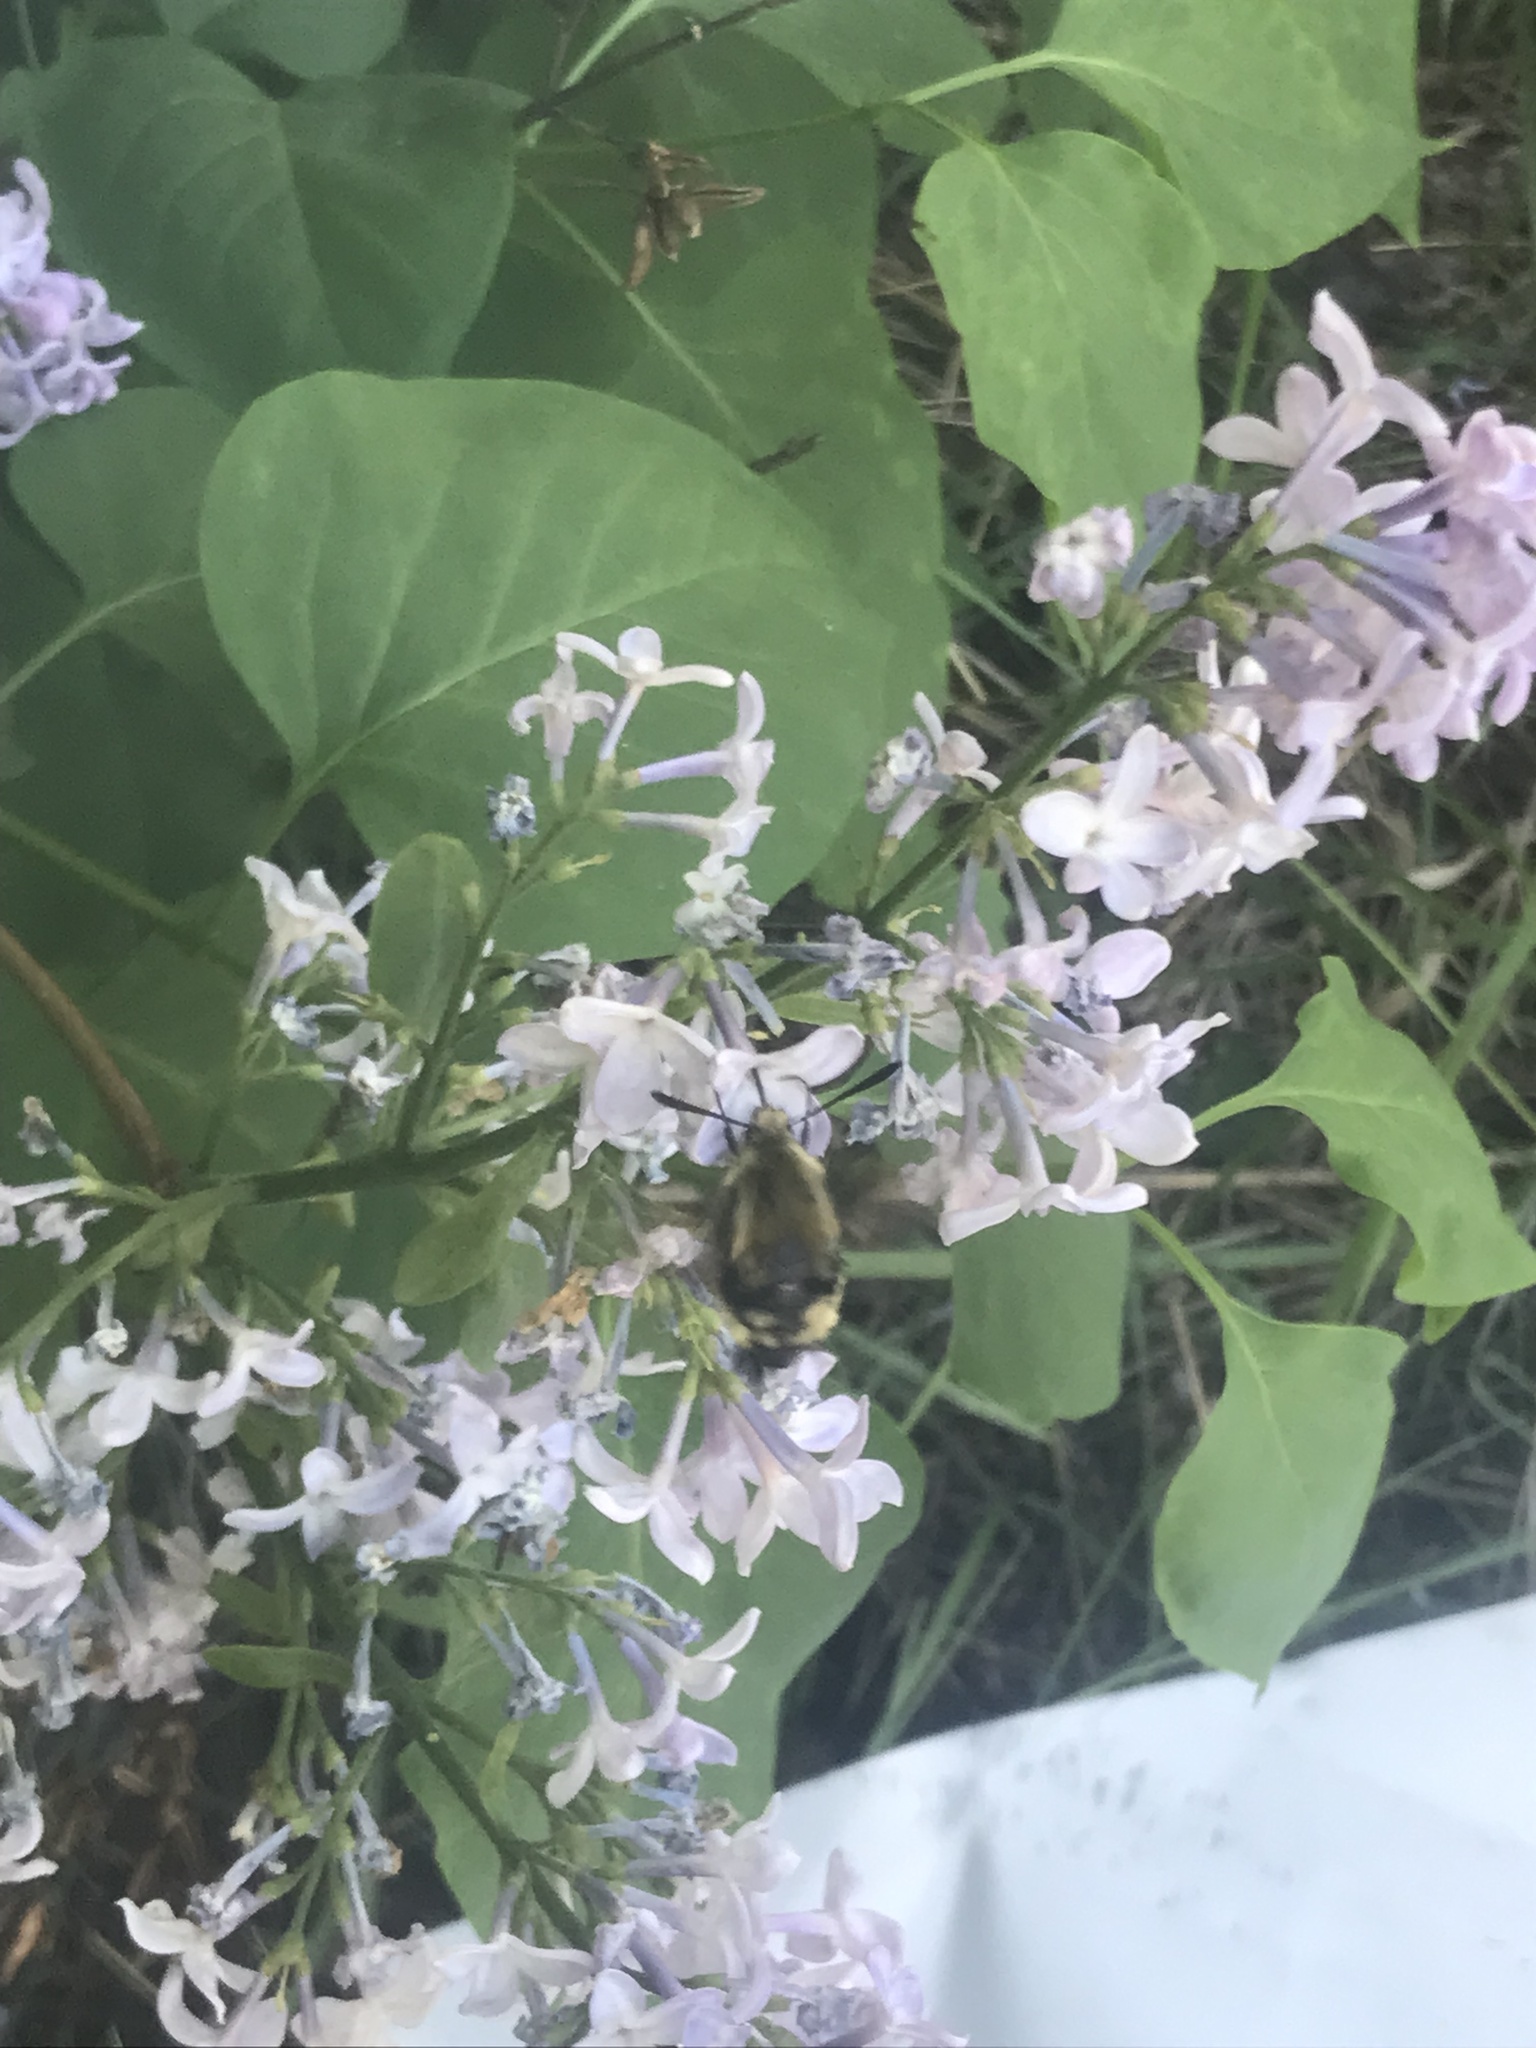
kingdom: Animalia
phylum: Arthropoda
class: Insecta
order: Lepidoptera
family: Sphingidae
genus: Hemaris
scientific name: Hemaris thetis
